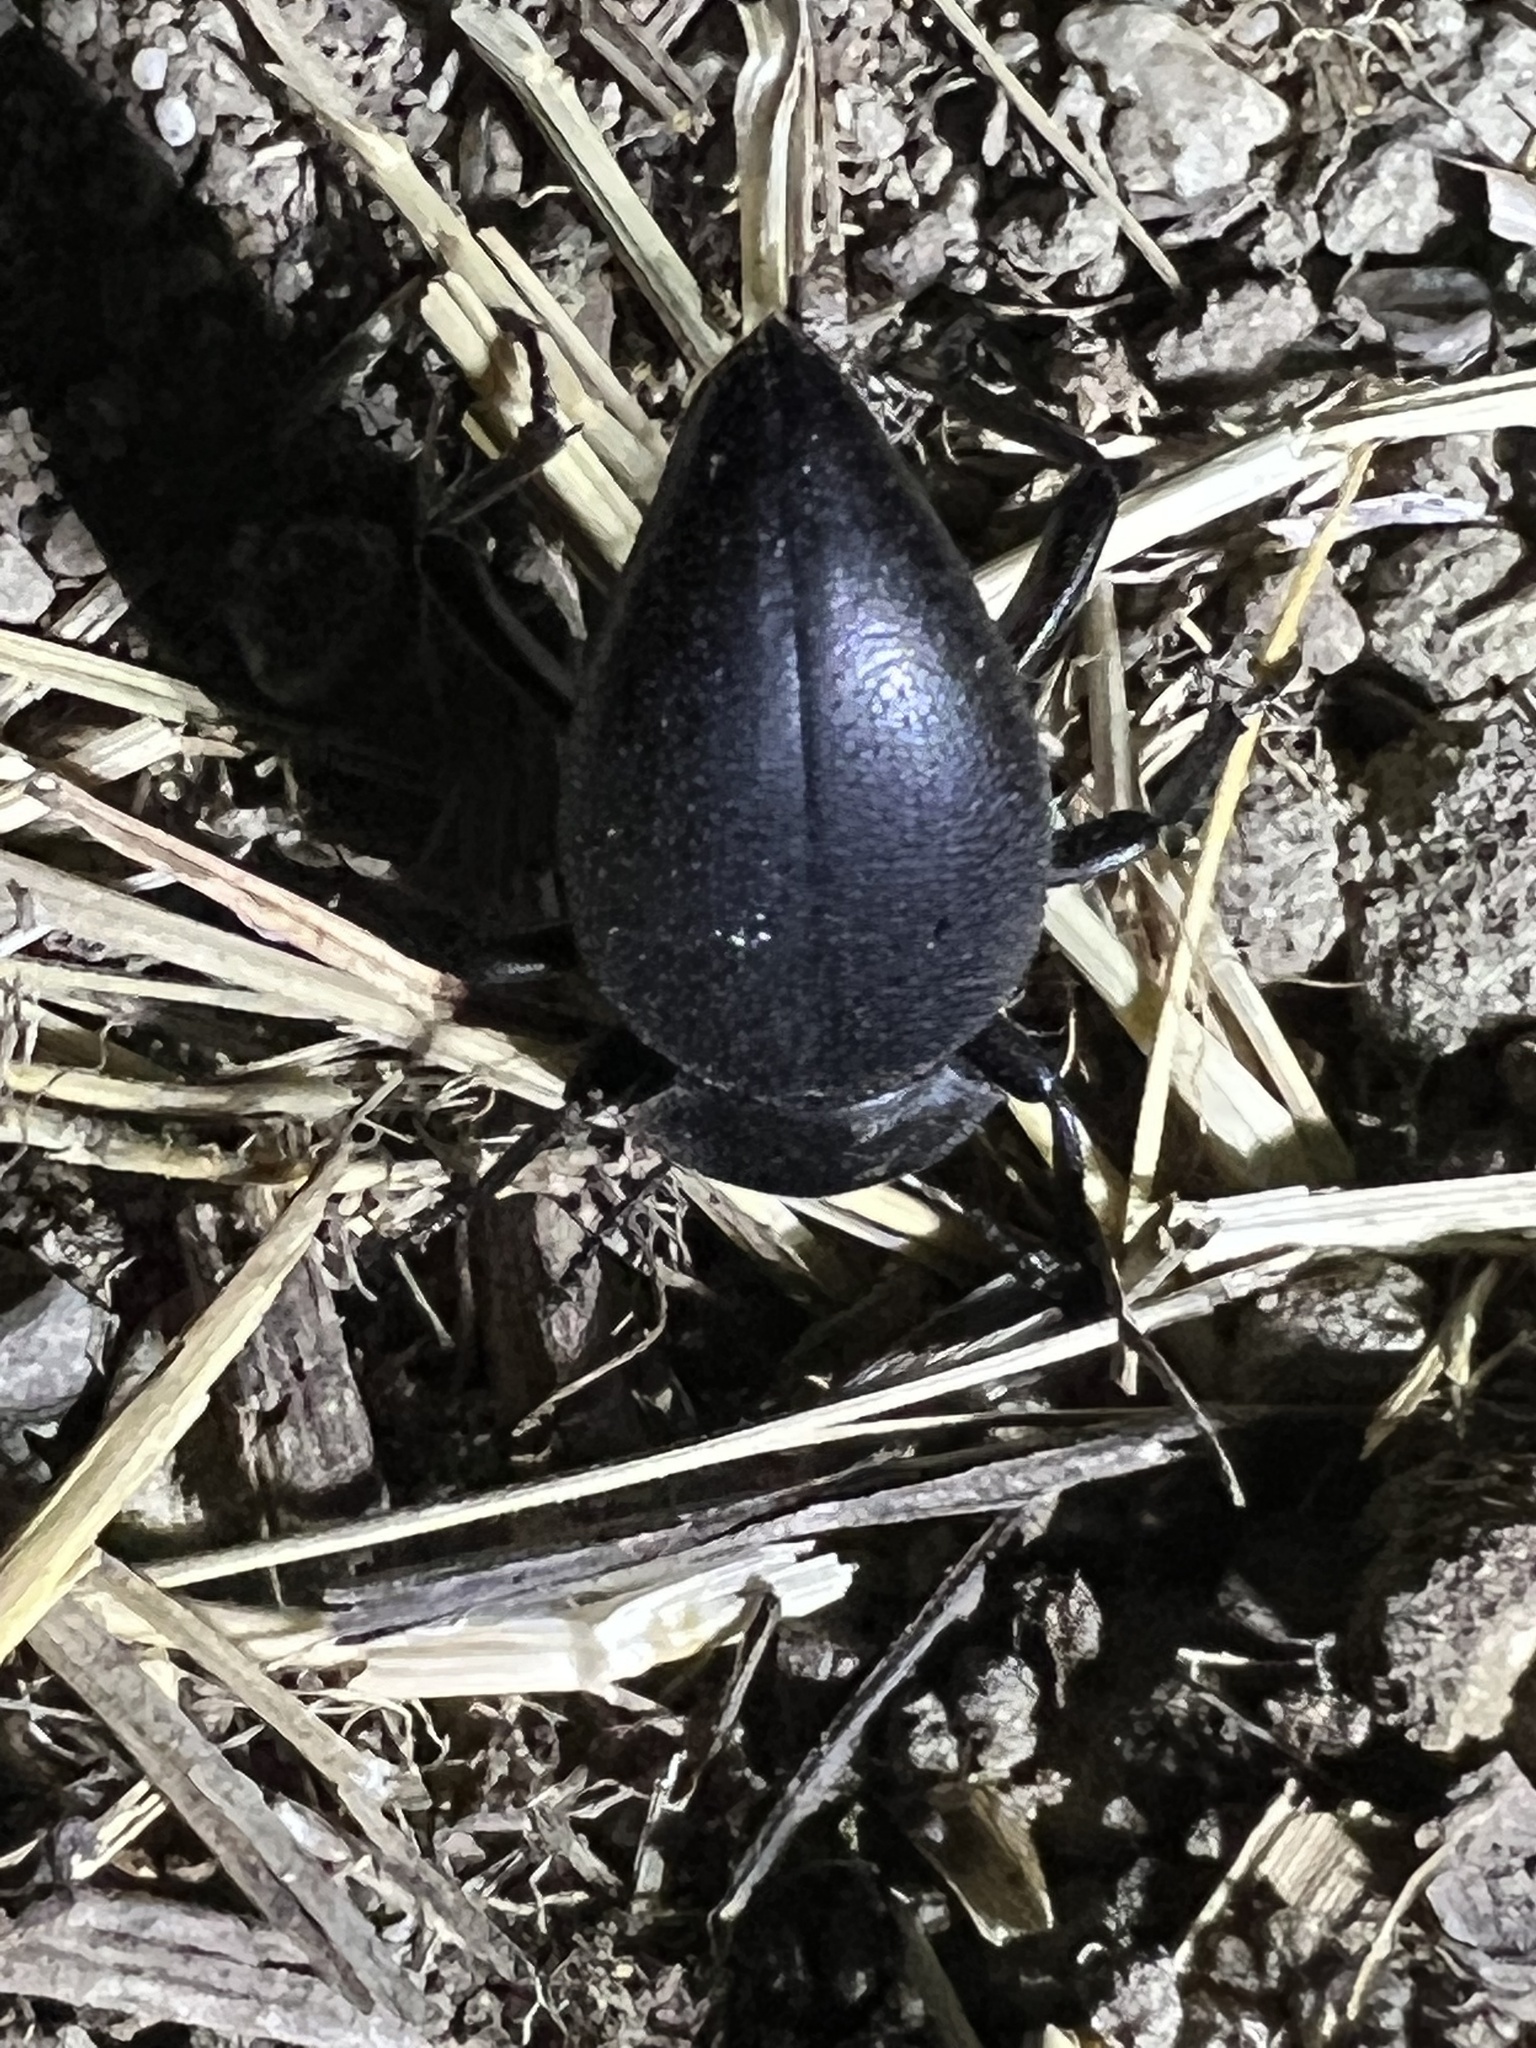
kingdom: Animalia
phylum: Arthropoda
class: Insecta
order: Coleoptera
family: Tenebrionidae
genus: Eleodes
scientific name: Eleodes marginata
